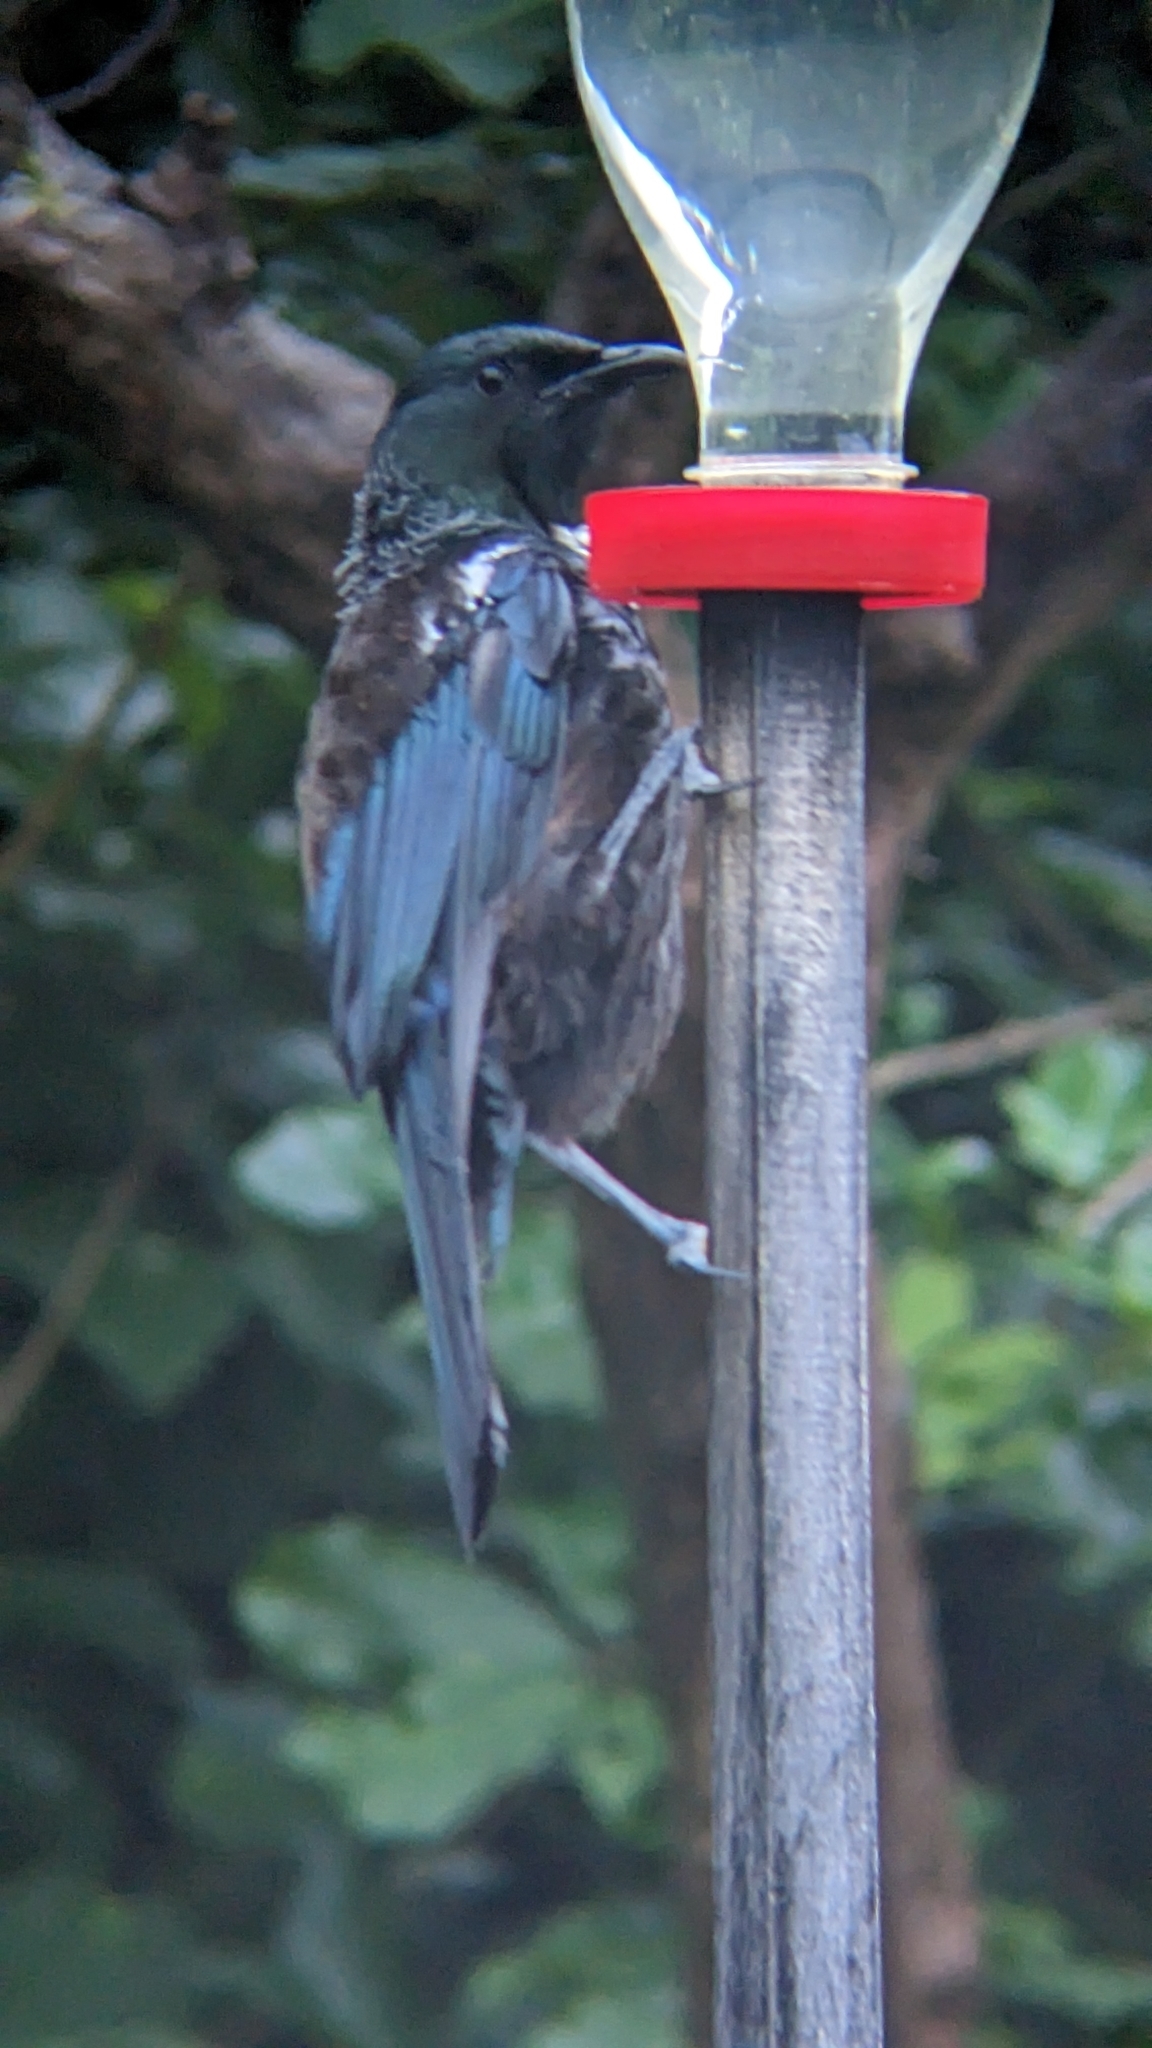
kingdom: Animalia
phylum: Chordata
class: Aves
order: Passeriformes
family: Meliphagidae
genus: Prosthemadera
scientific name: Prosthemadera novaeseelandiae
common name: Tui
